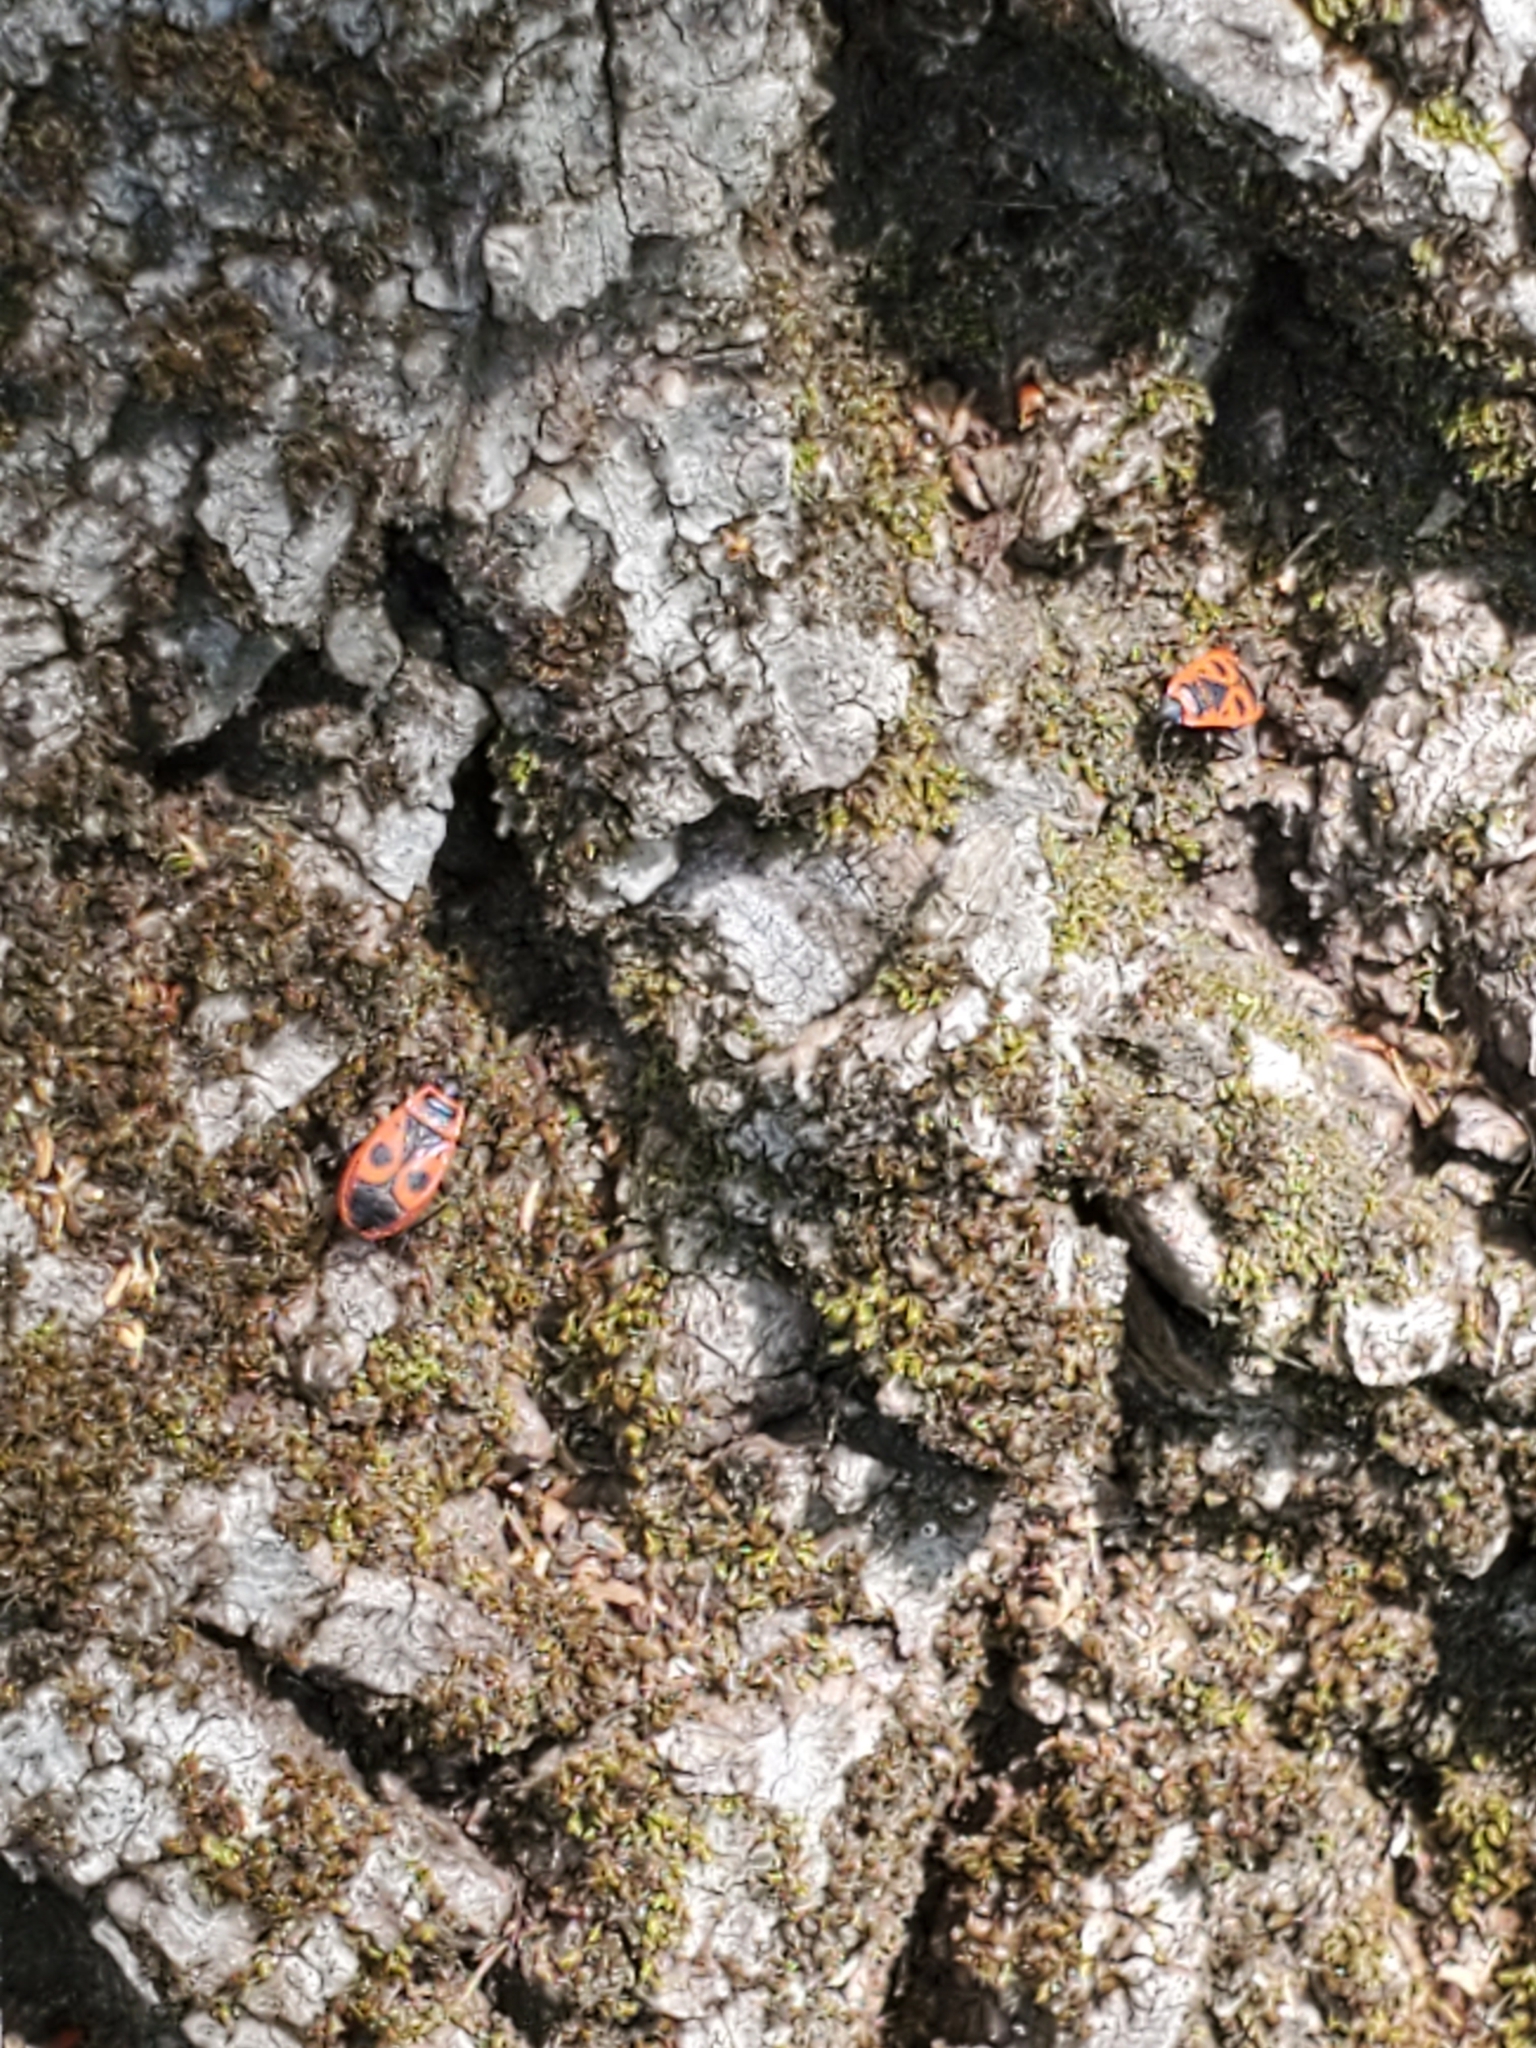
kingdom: Animalia
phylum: Arthropoda
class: Insecta
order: Hemiptera
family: Pyrrhocoridae
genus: Pyrrhocoris
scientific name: Pyrrhocoris apterus
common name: Firebug
